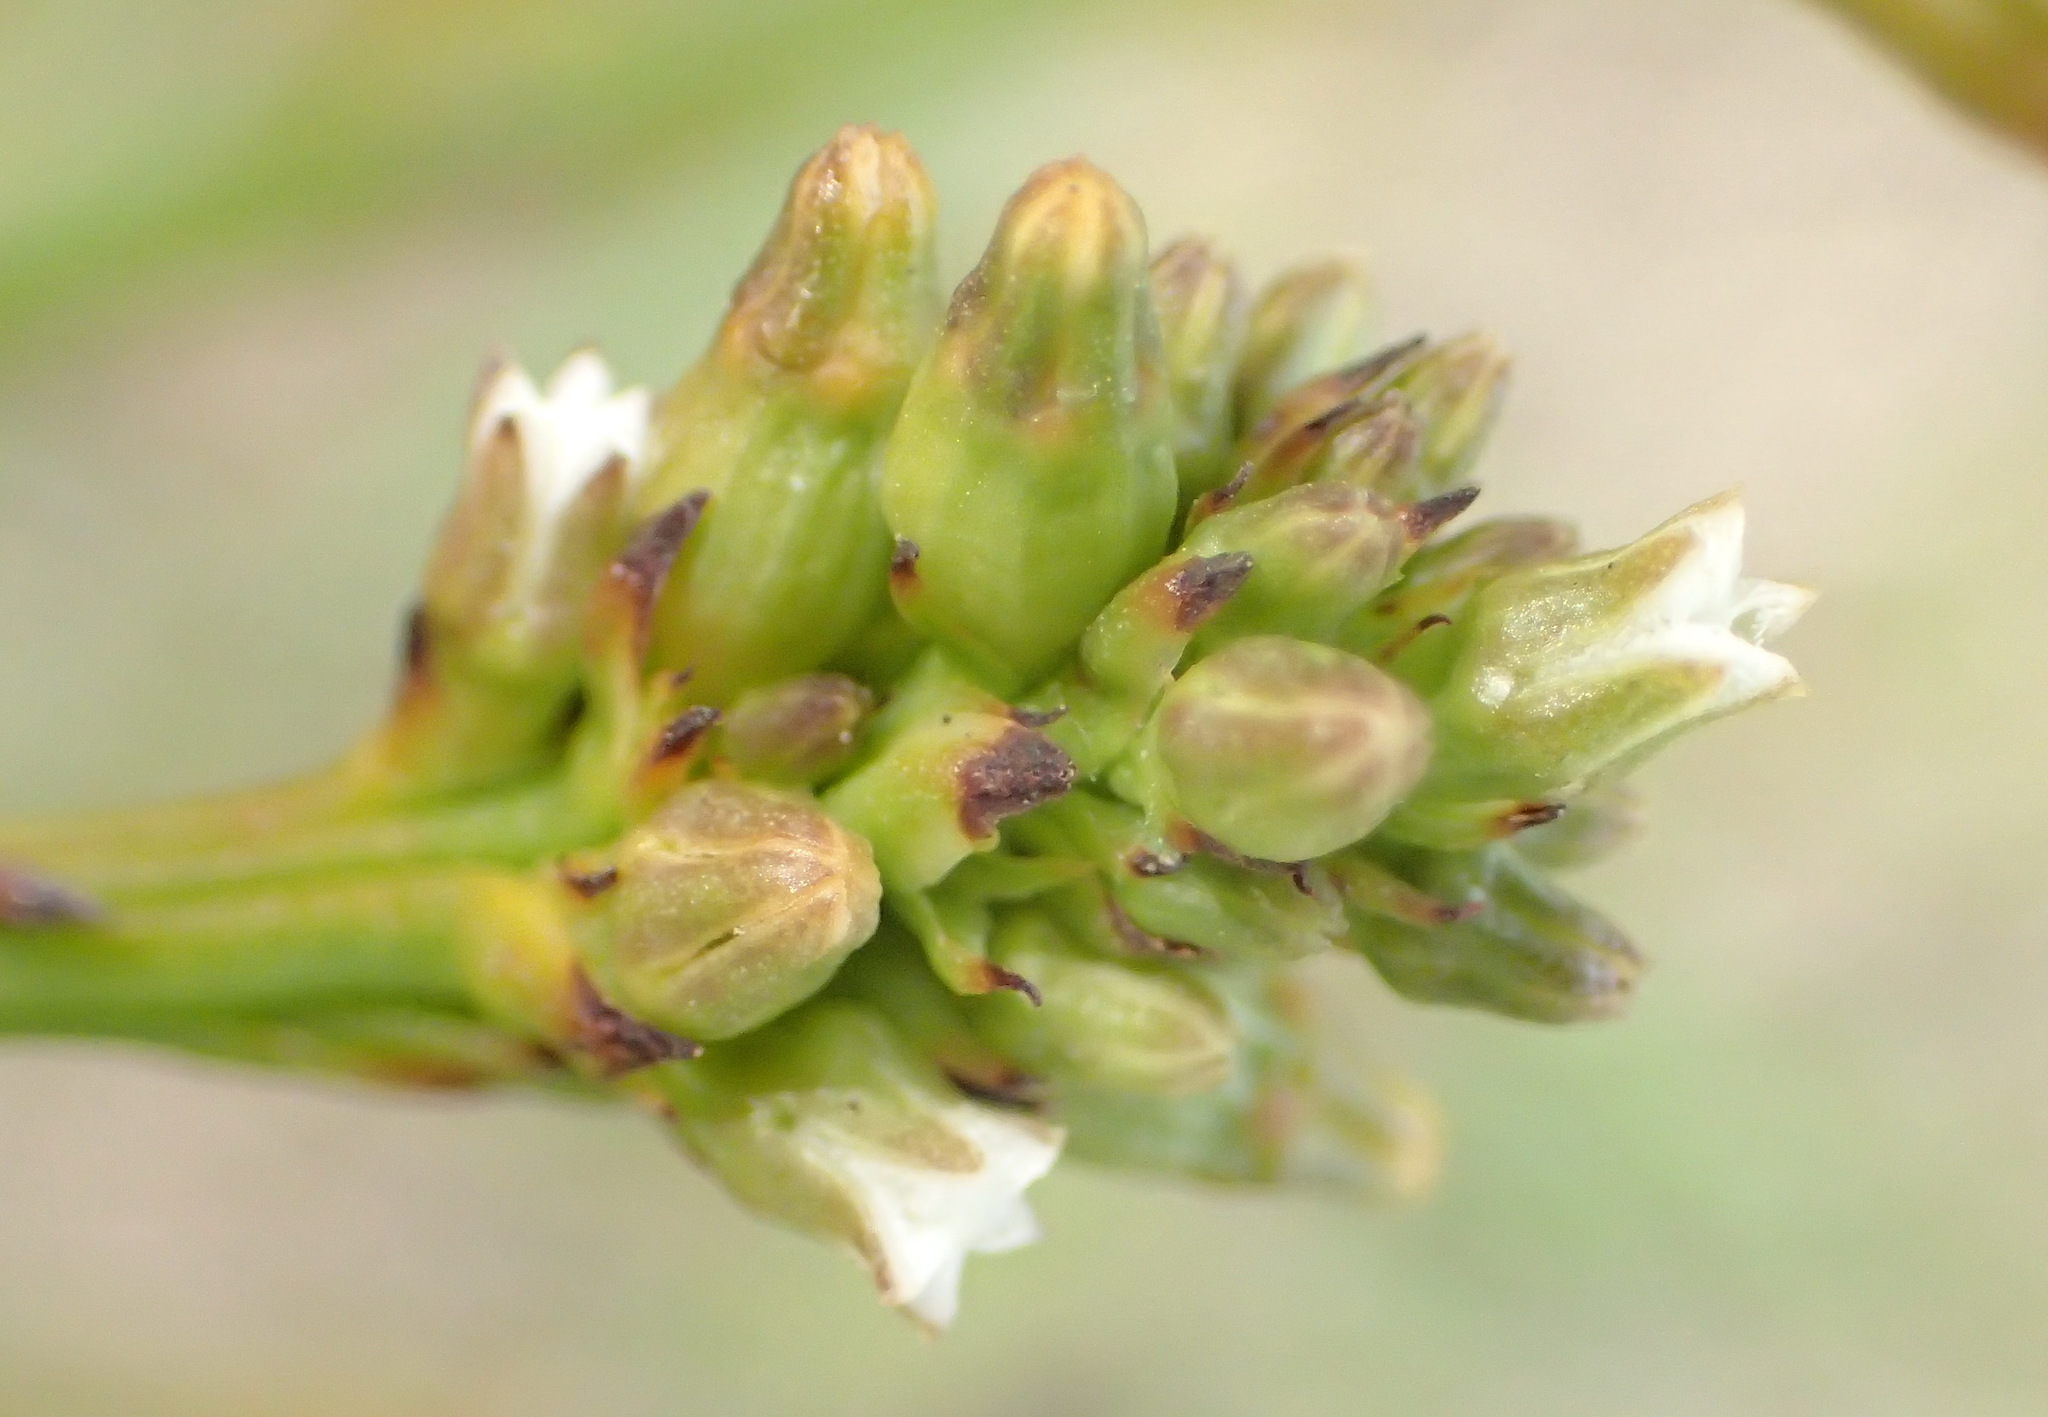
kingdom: Plantae
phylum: Tracheophyta
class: Magnoliopsida
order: Santalales
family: Thesiaceae
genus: Thesium
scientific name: Thesium spicatum
